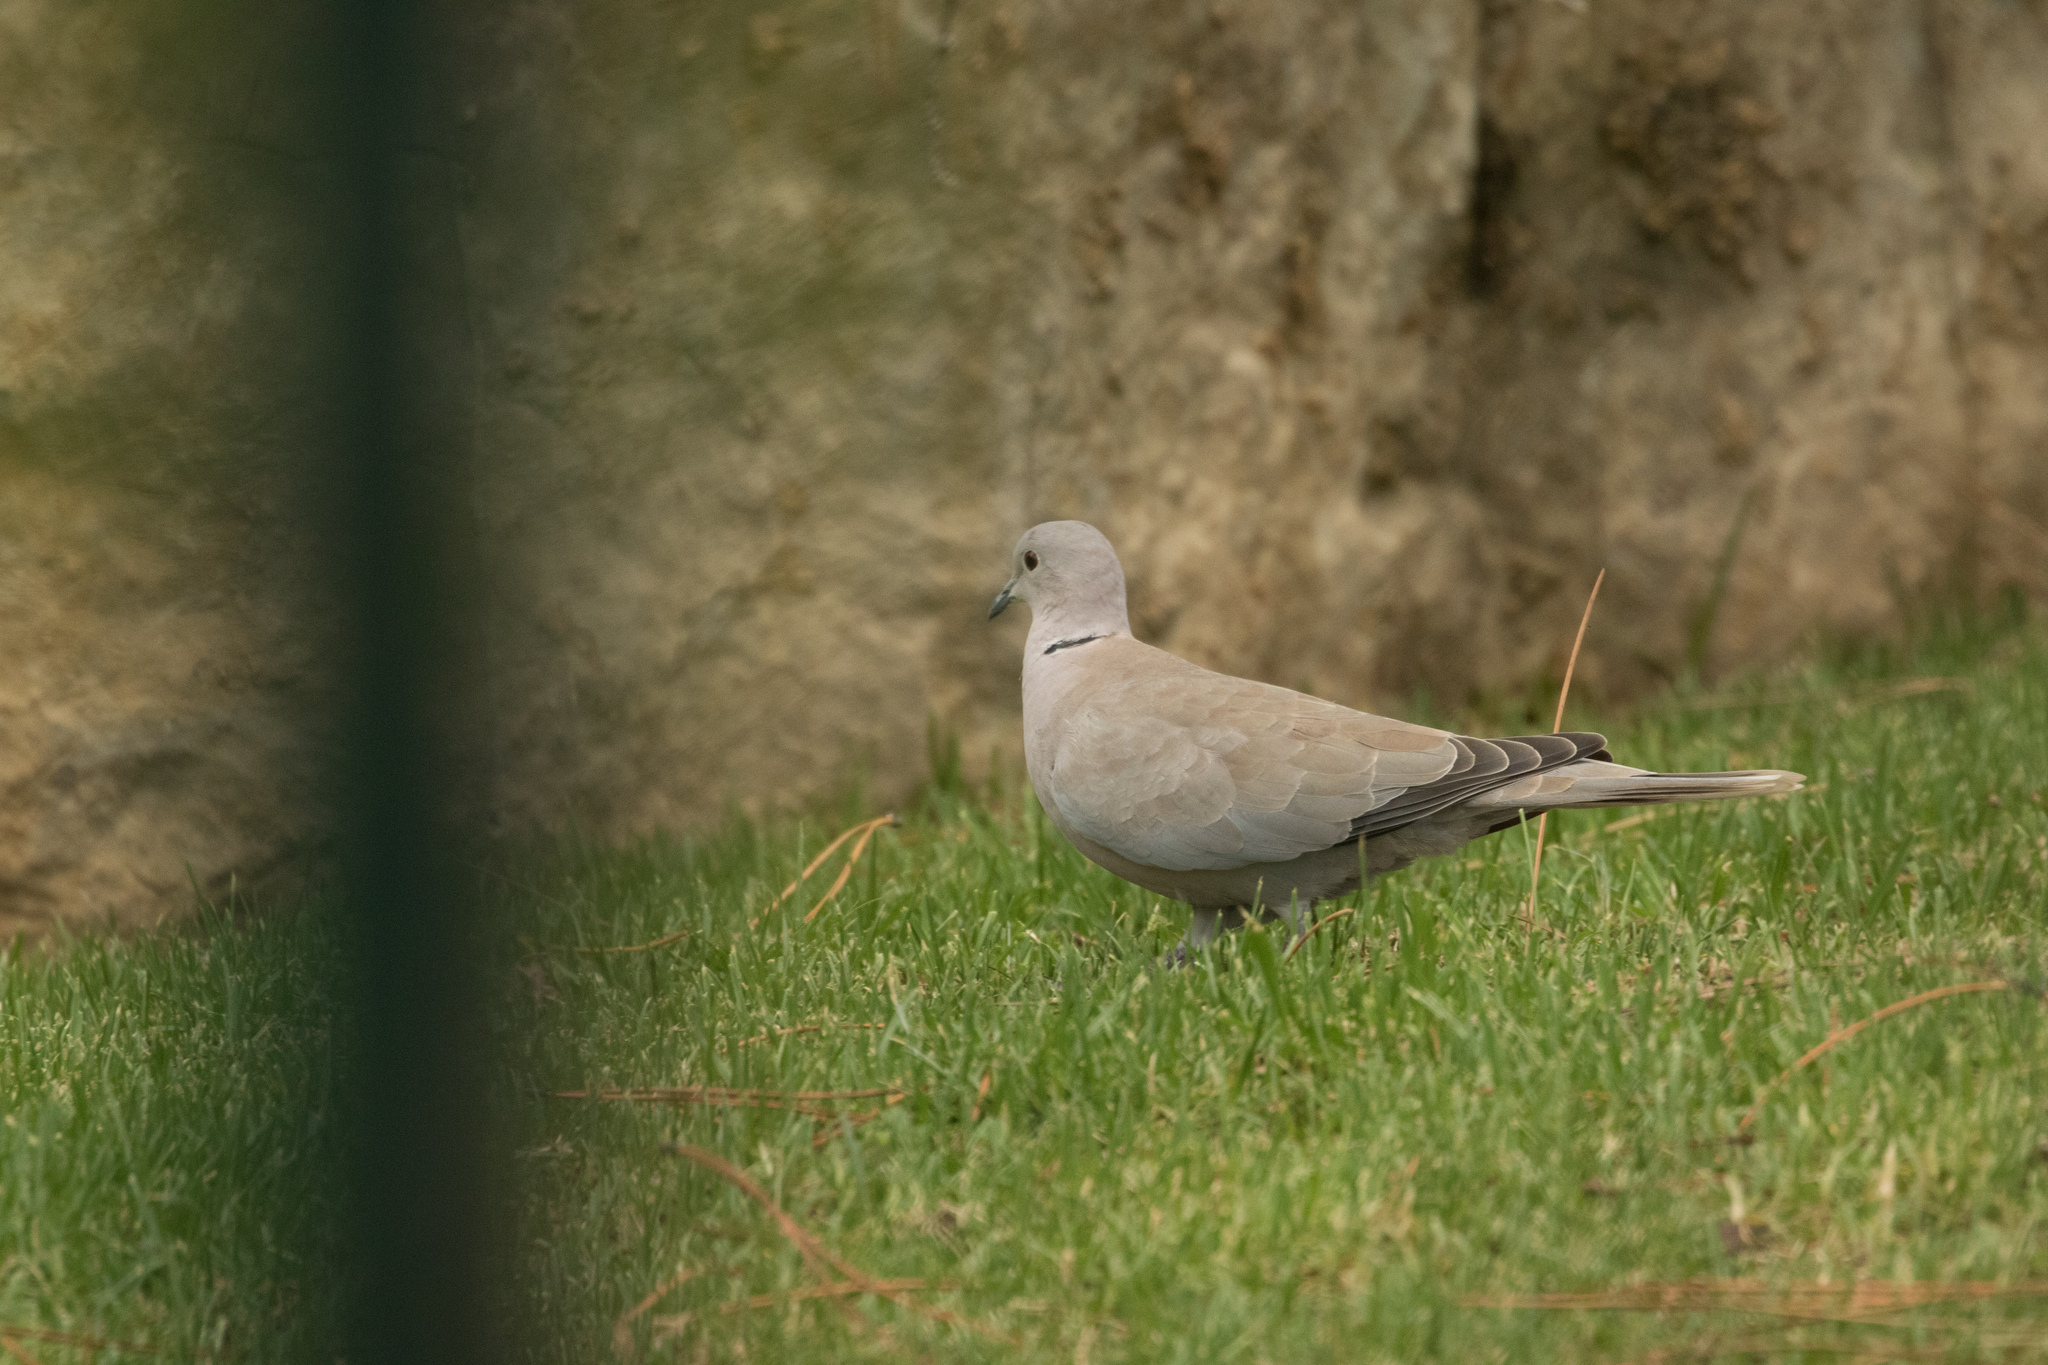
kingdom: Animalia
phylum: Chordata
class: Aves
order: Columbiformes
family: Columbidae
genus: Streptopelia
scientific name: Streptopelia decaocto
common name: Eurasian collared dove
